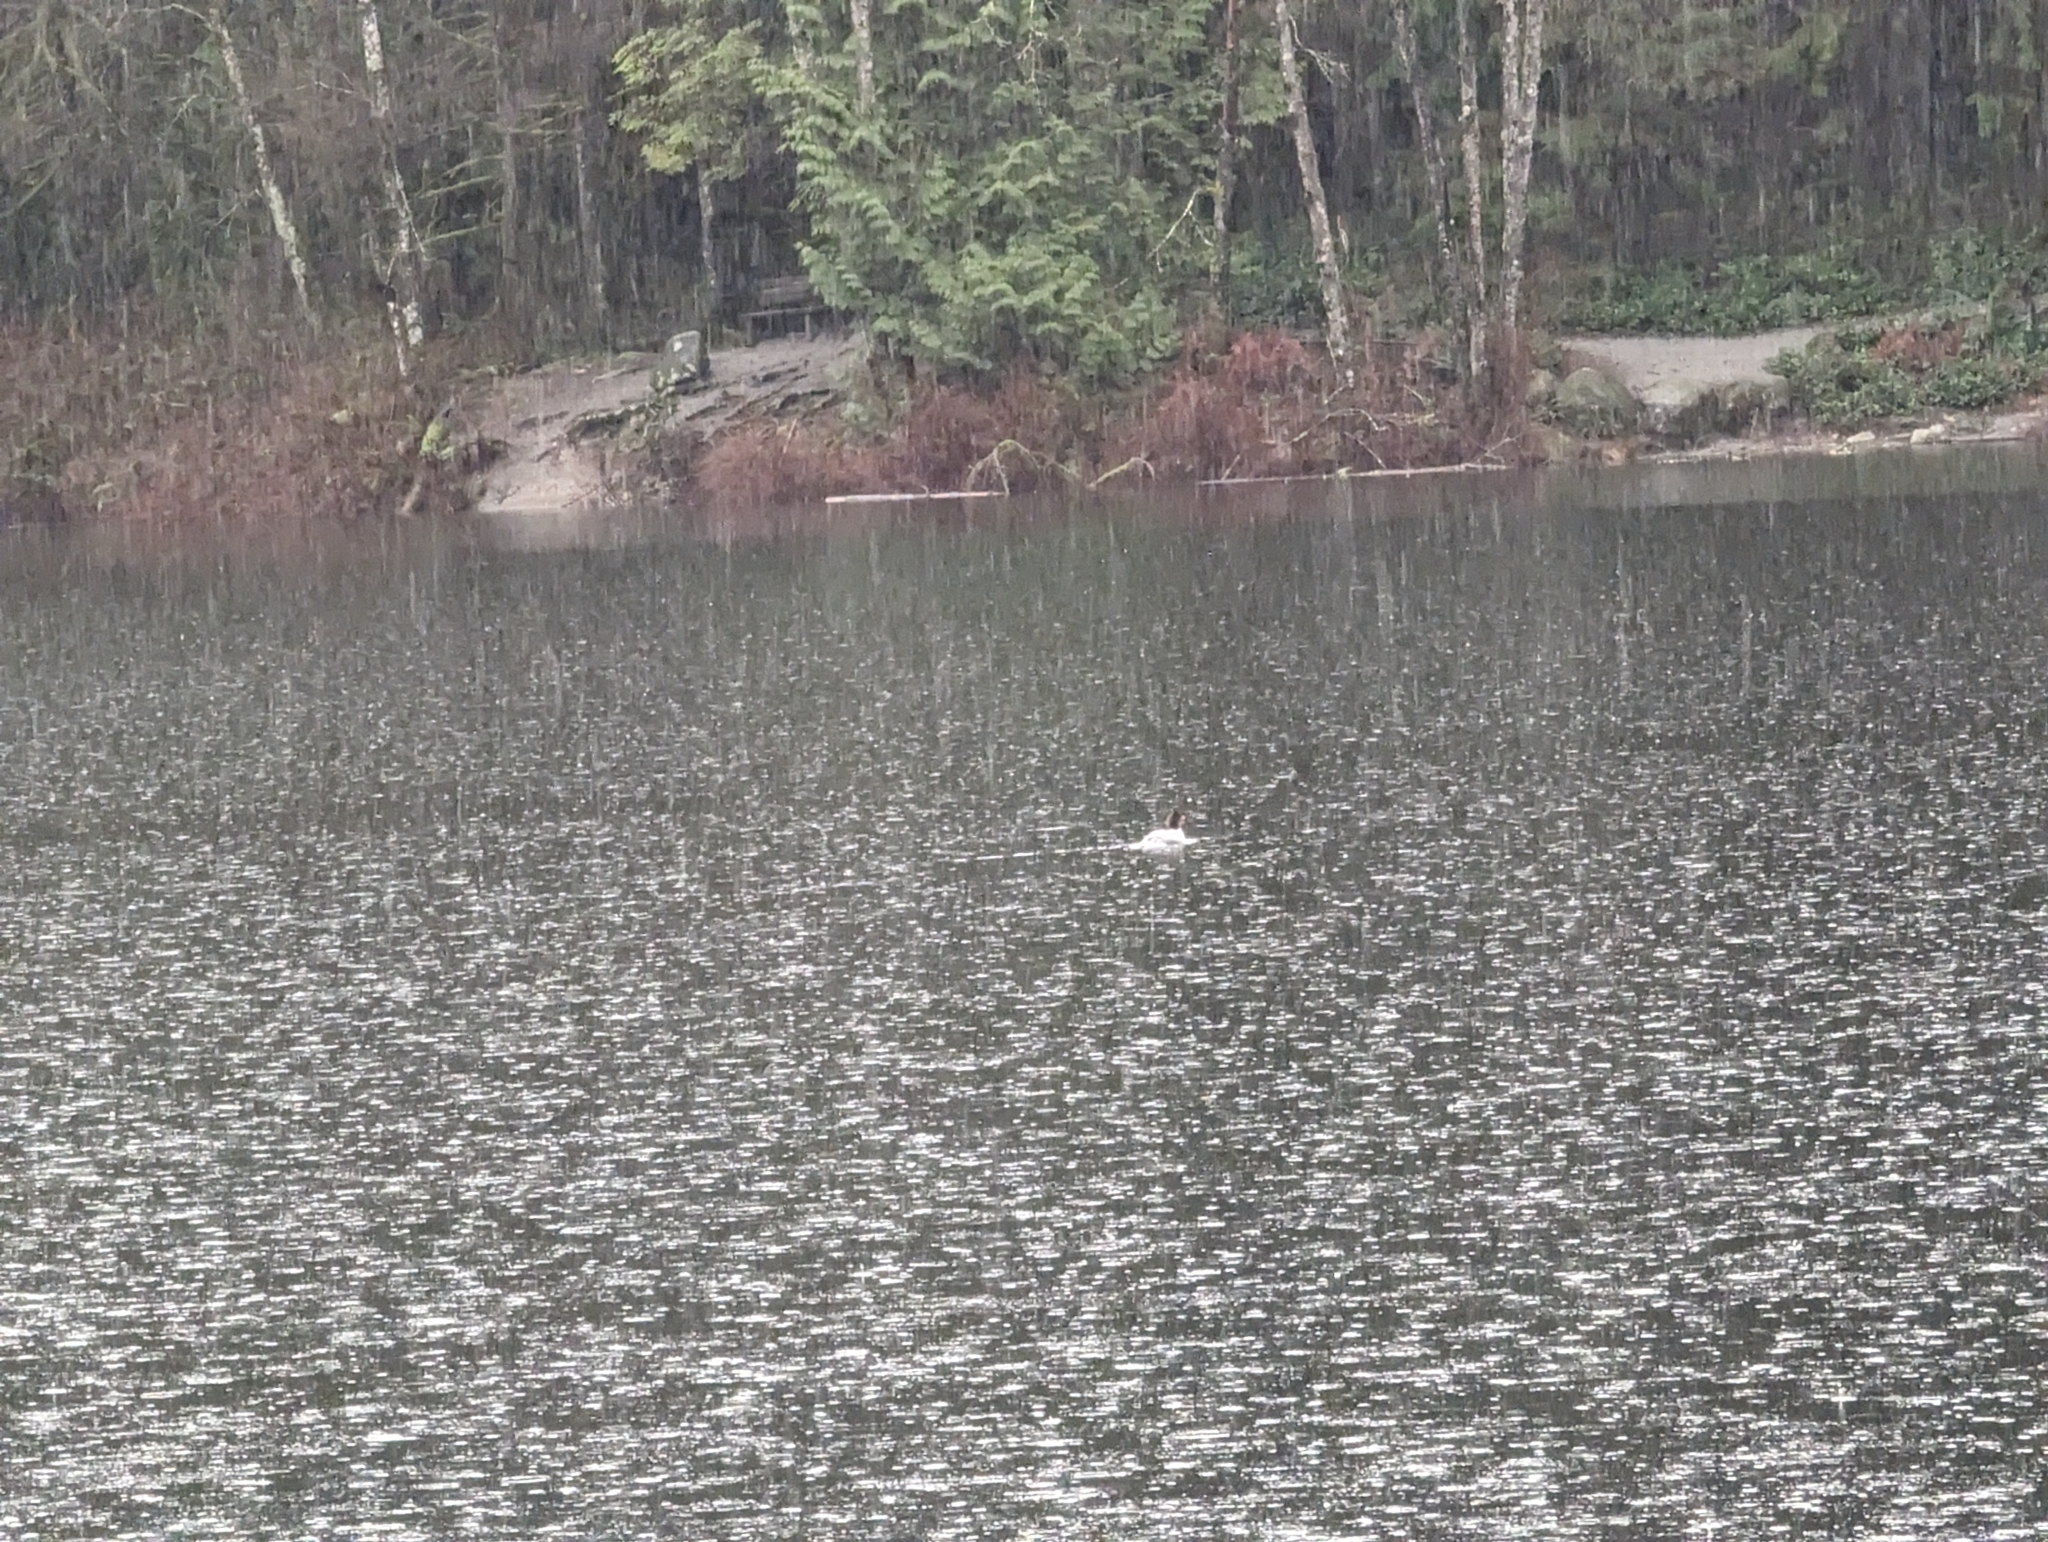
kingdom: Animalia
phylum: Chordata
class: Aves
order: Anseriformes
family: Anatidae
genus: Mergus
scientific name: Mergus merganser
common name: Common merganser
